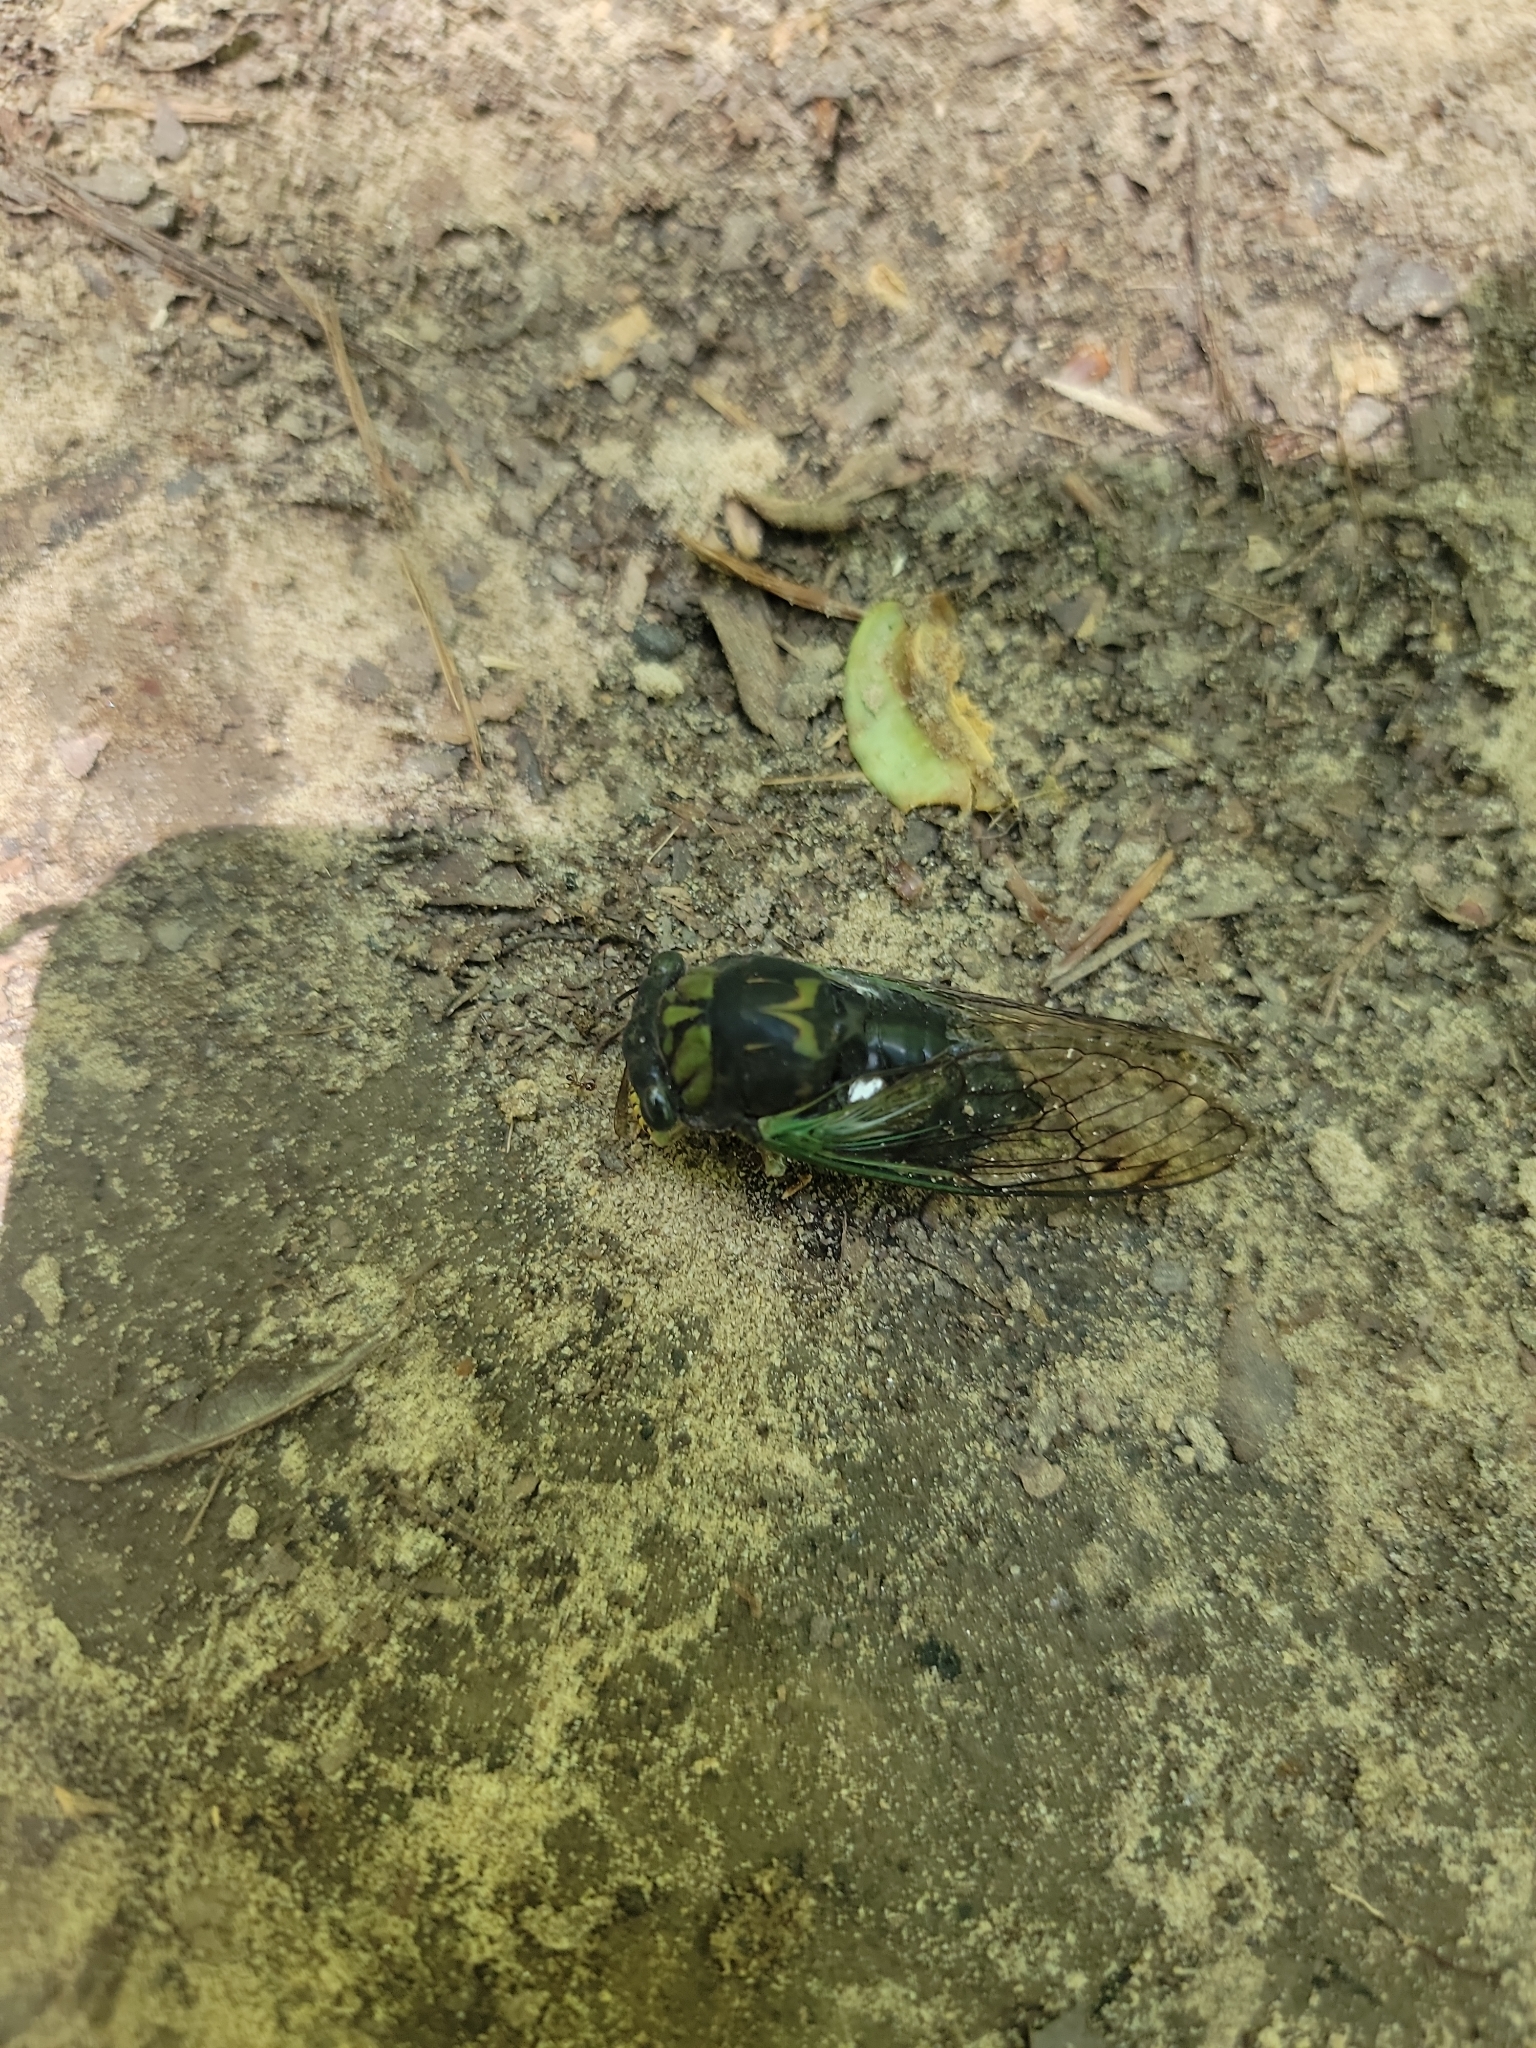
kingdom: Animalia
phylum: Arthropoda
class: Insecta
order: Hemiptera
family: Cicadidae
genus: Neotibicen
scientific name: Neotibicen tibicen
